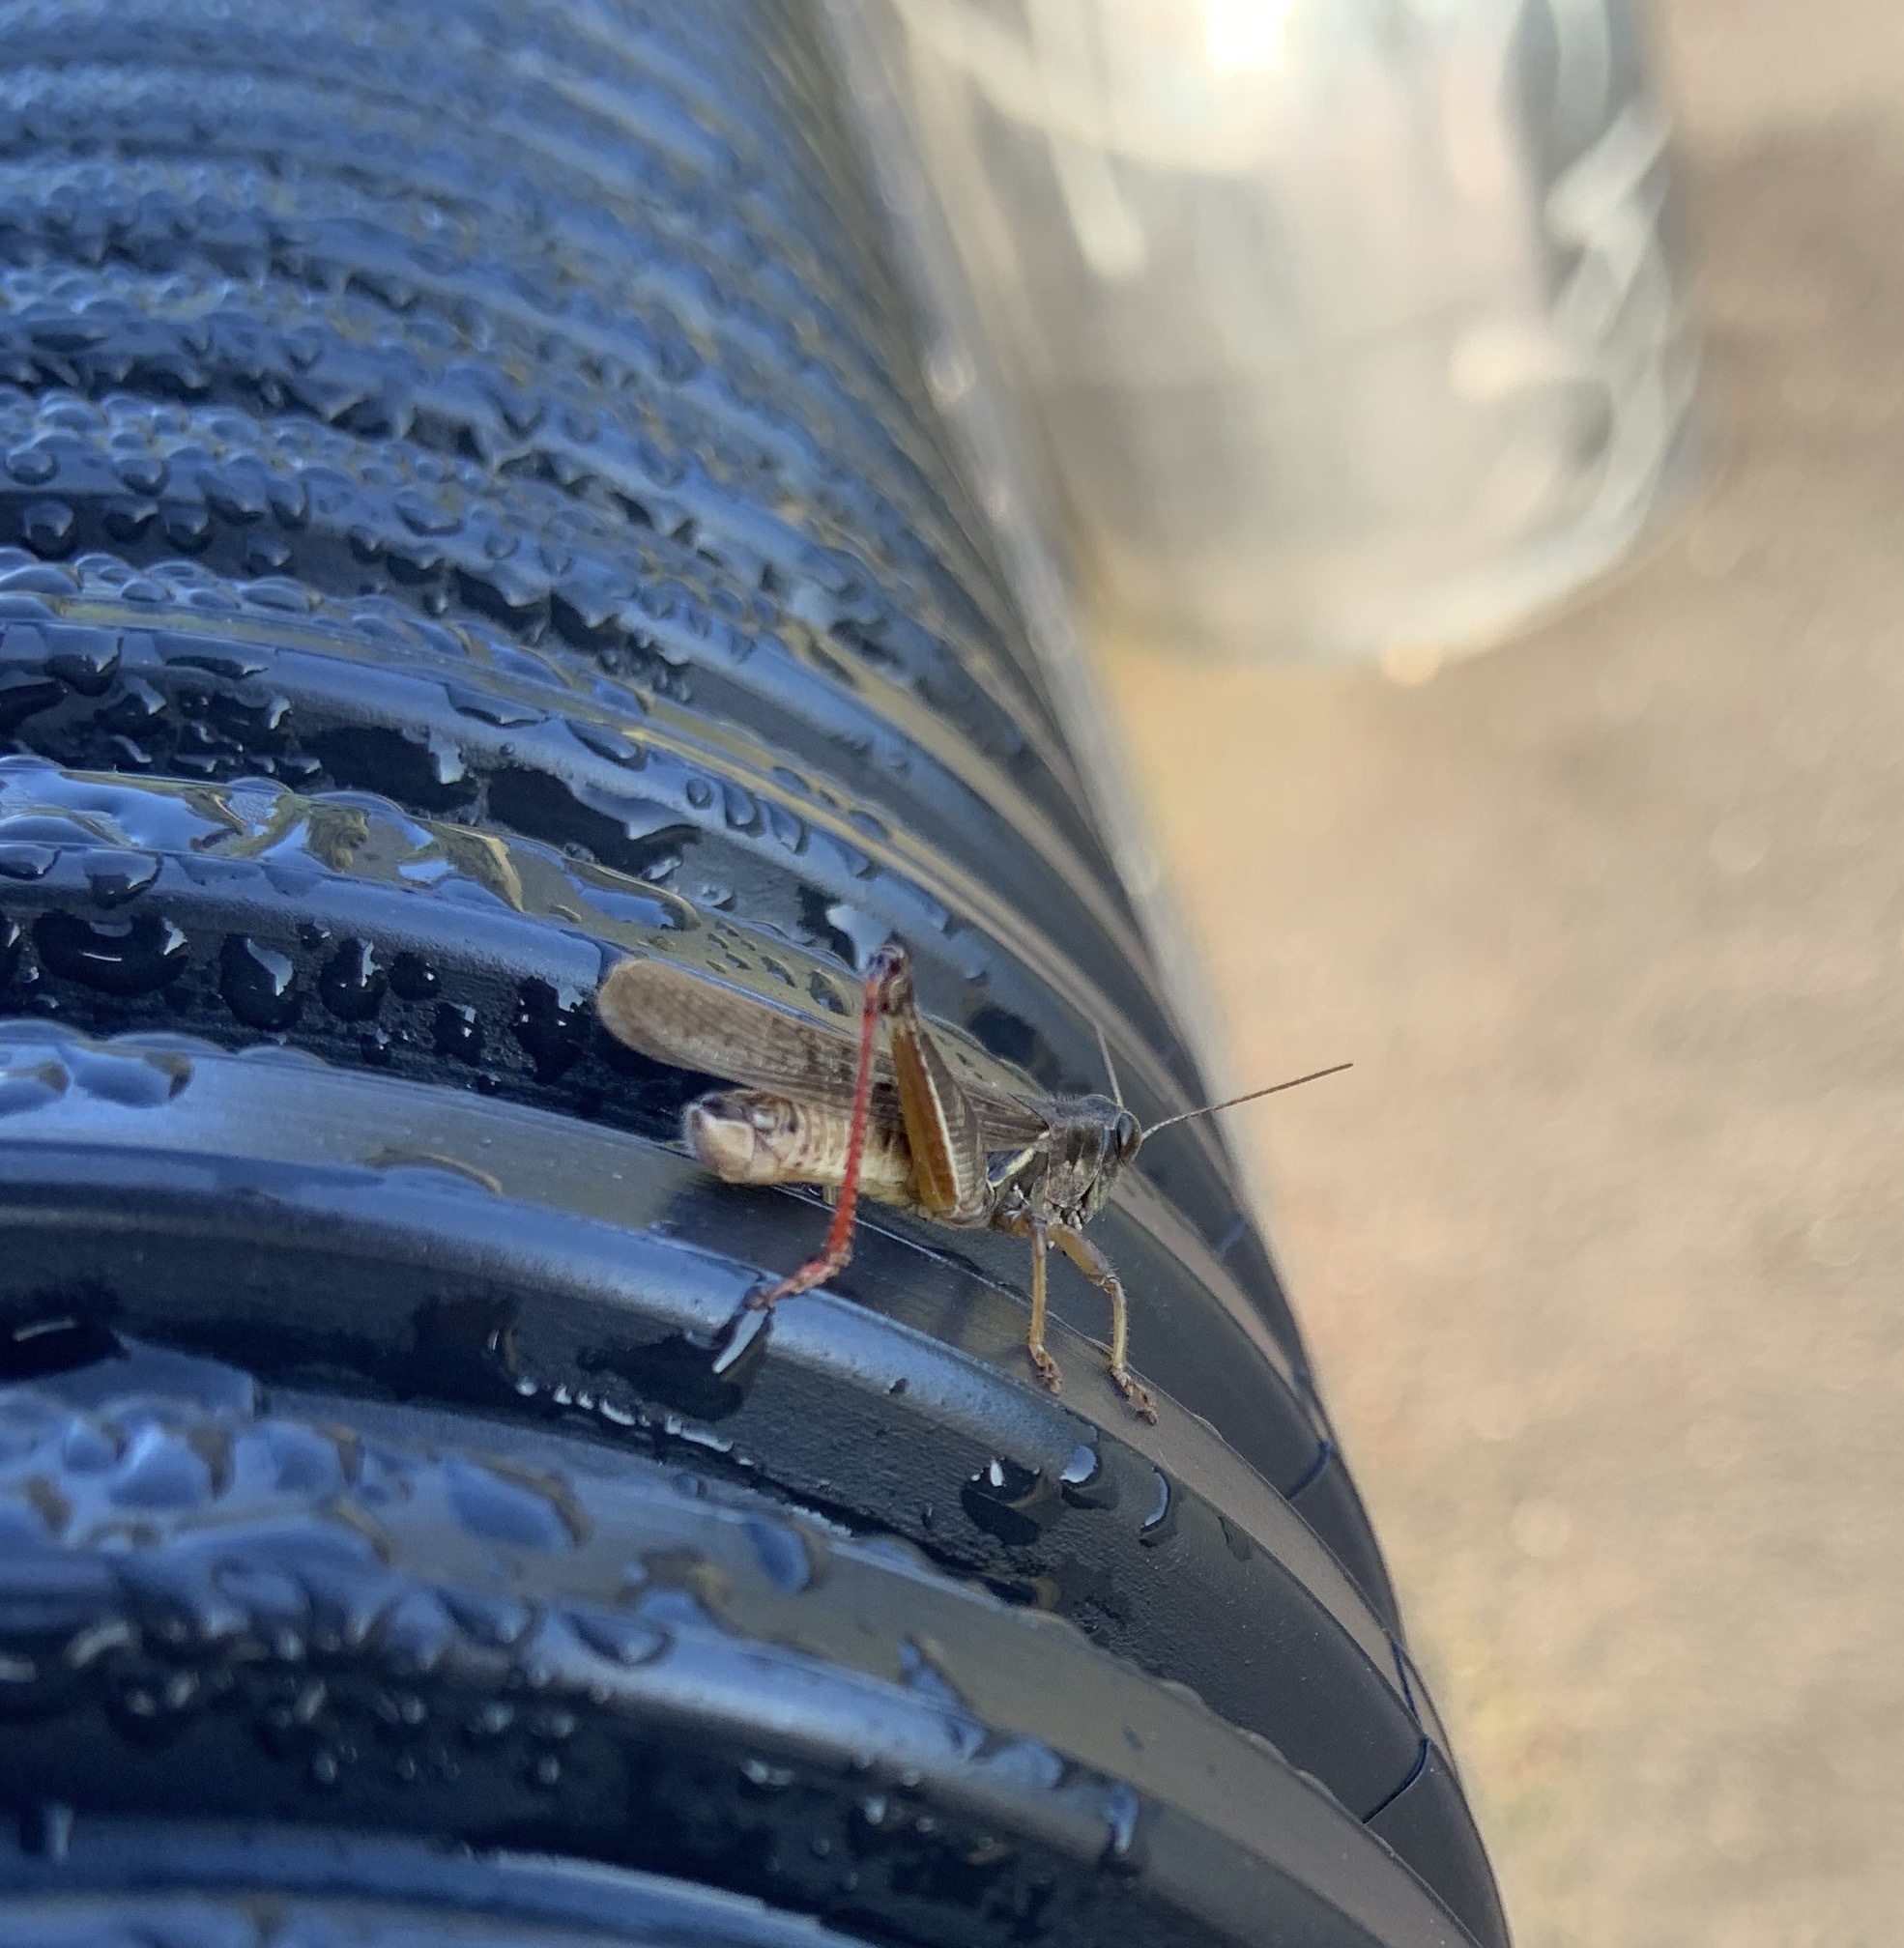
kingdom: Animalia
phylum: Arthropoda
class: Insecta
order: Orthoptera
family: Acrididae
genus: Melanoplus
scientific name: Melanoplus sanguinipes
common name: Migratory grasshopper
